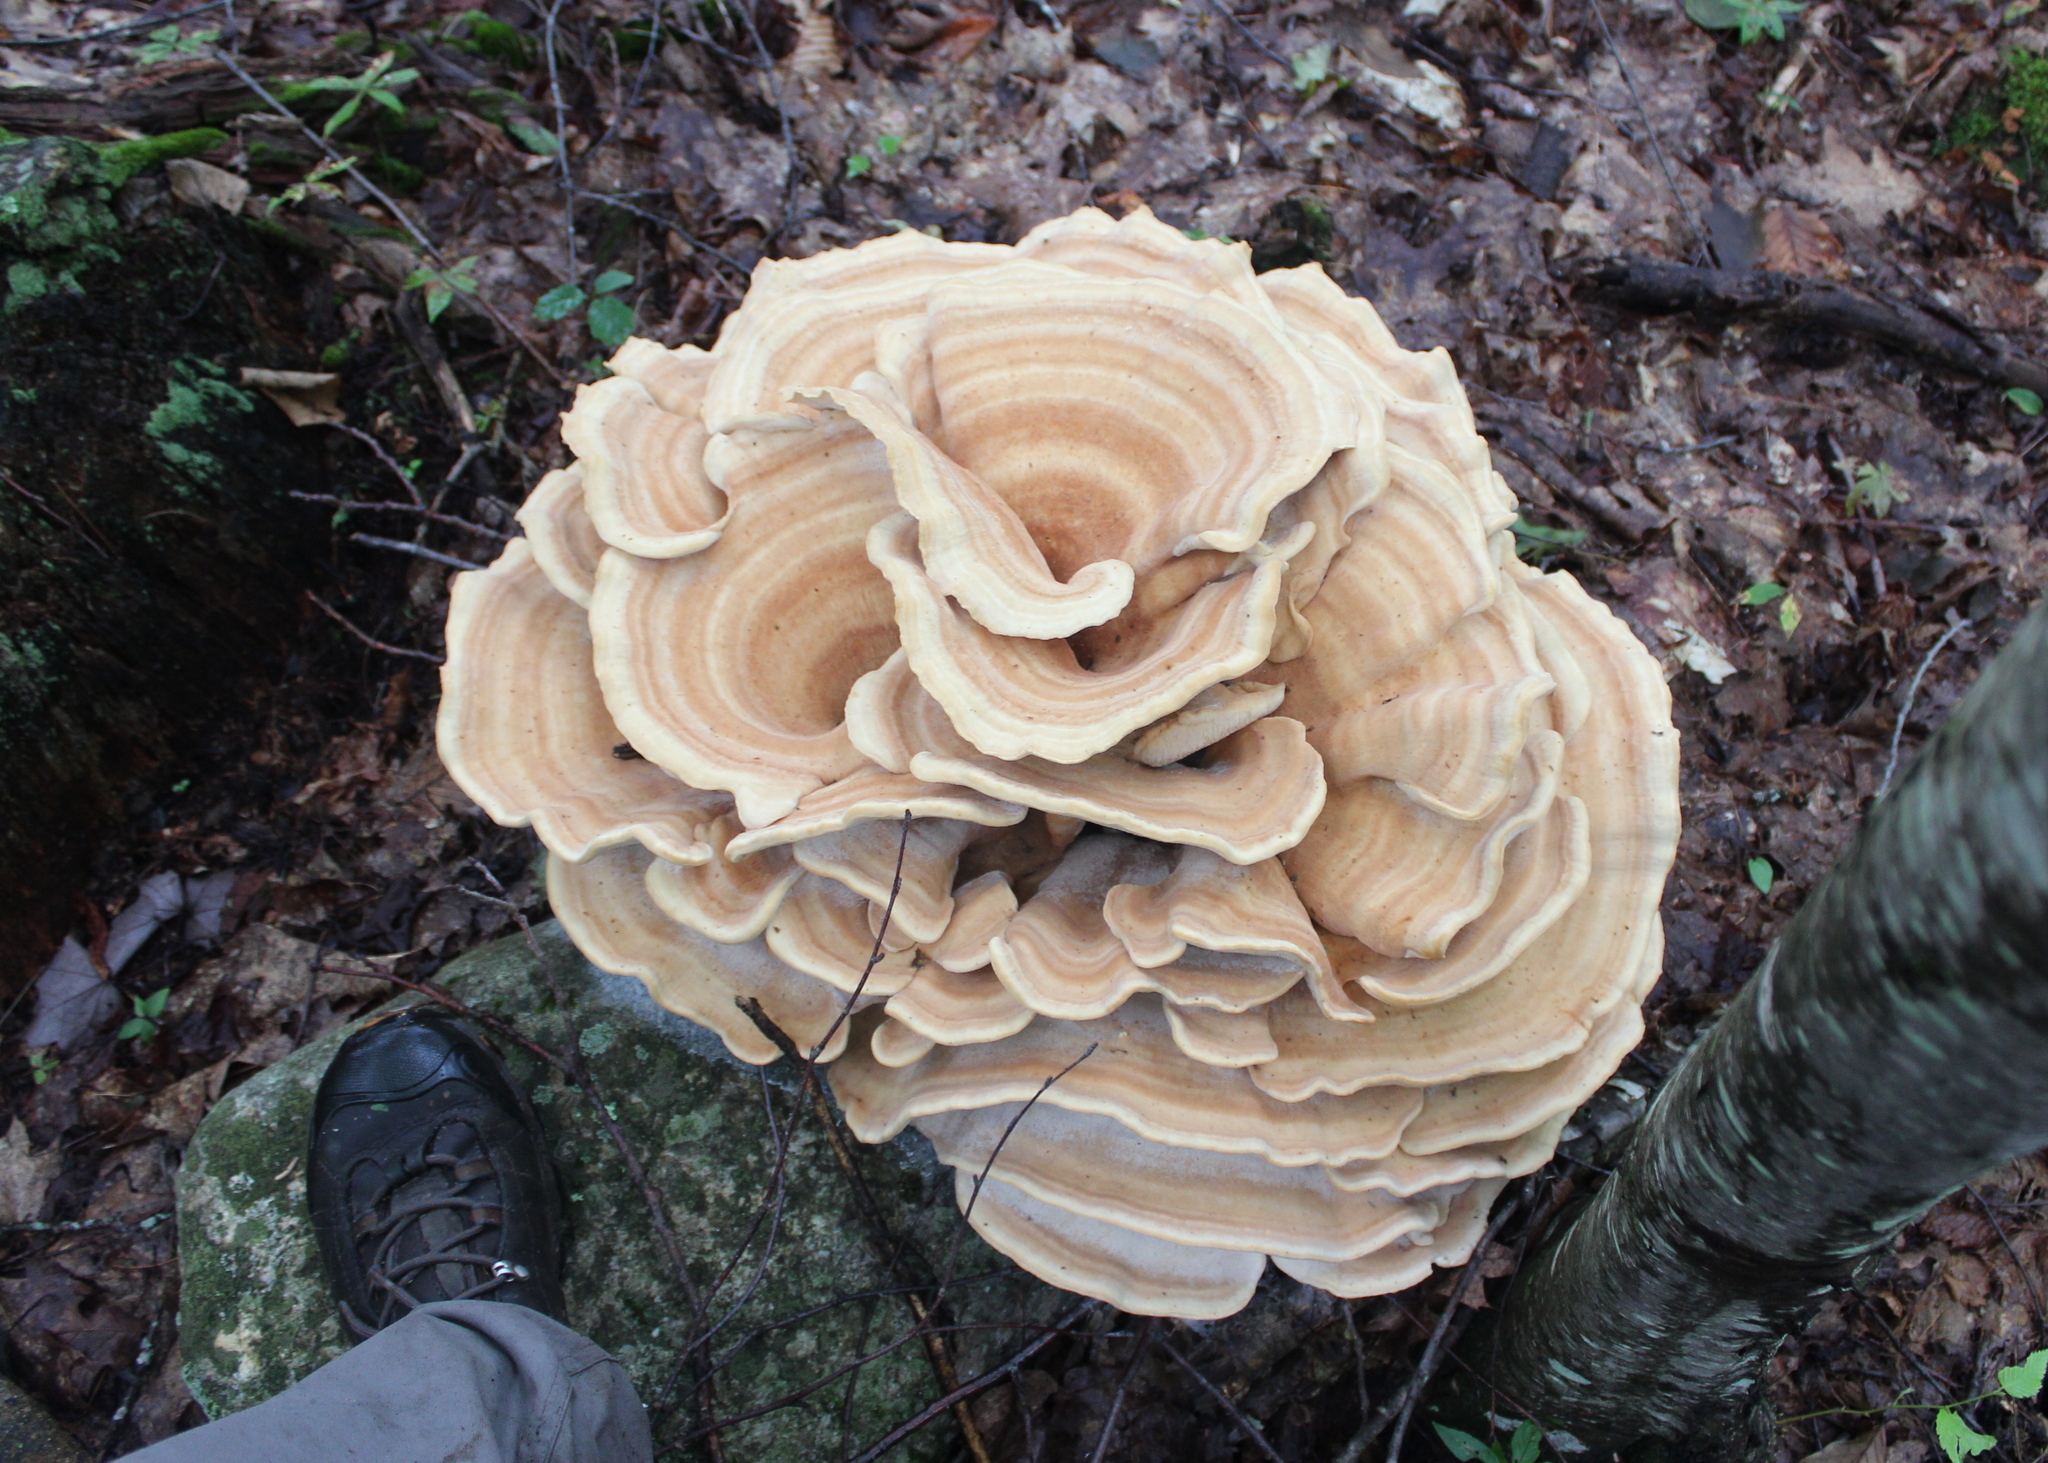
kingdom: Fungi
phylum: Basidiomycota
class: Agaricomycetes
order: Russulales
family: Bondarzewiaceae
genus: Bondarzewia
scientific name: Bondarzewia berkeleyi
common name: Berkeley's polypore
